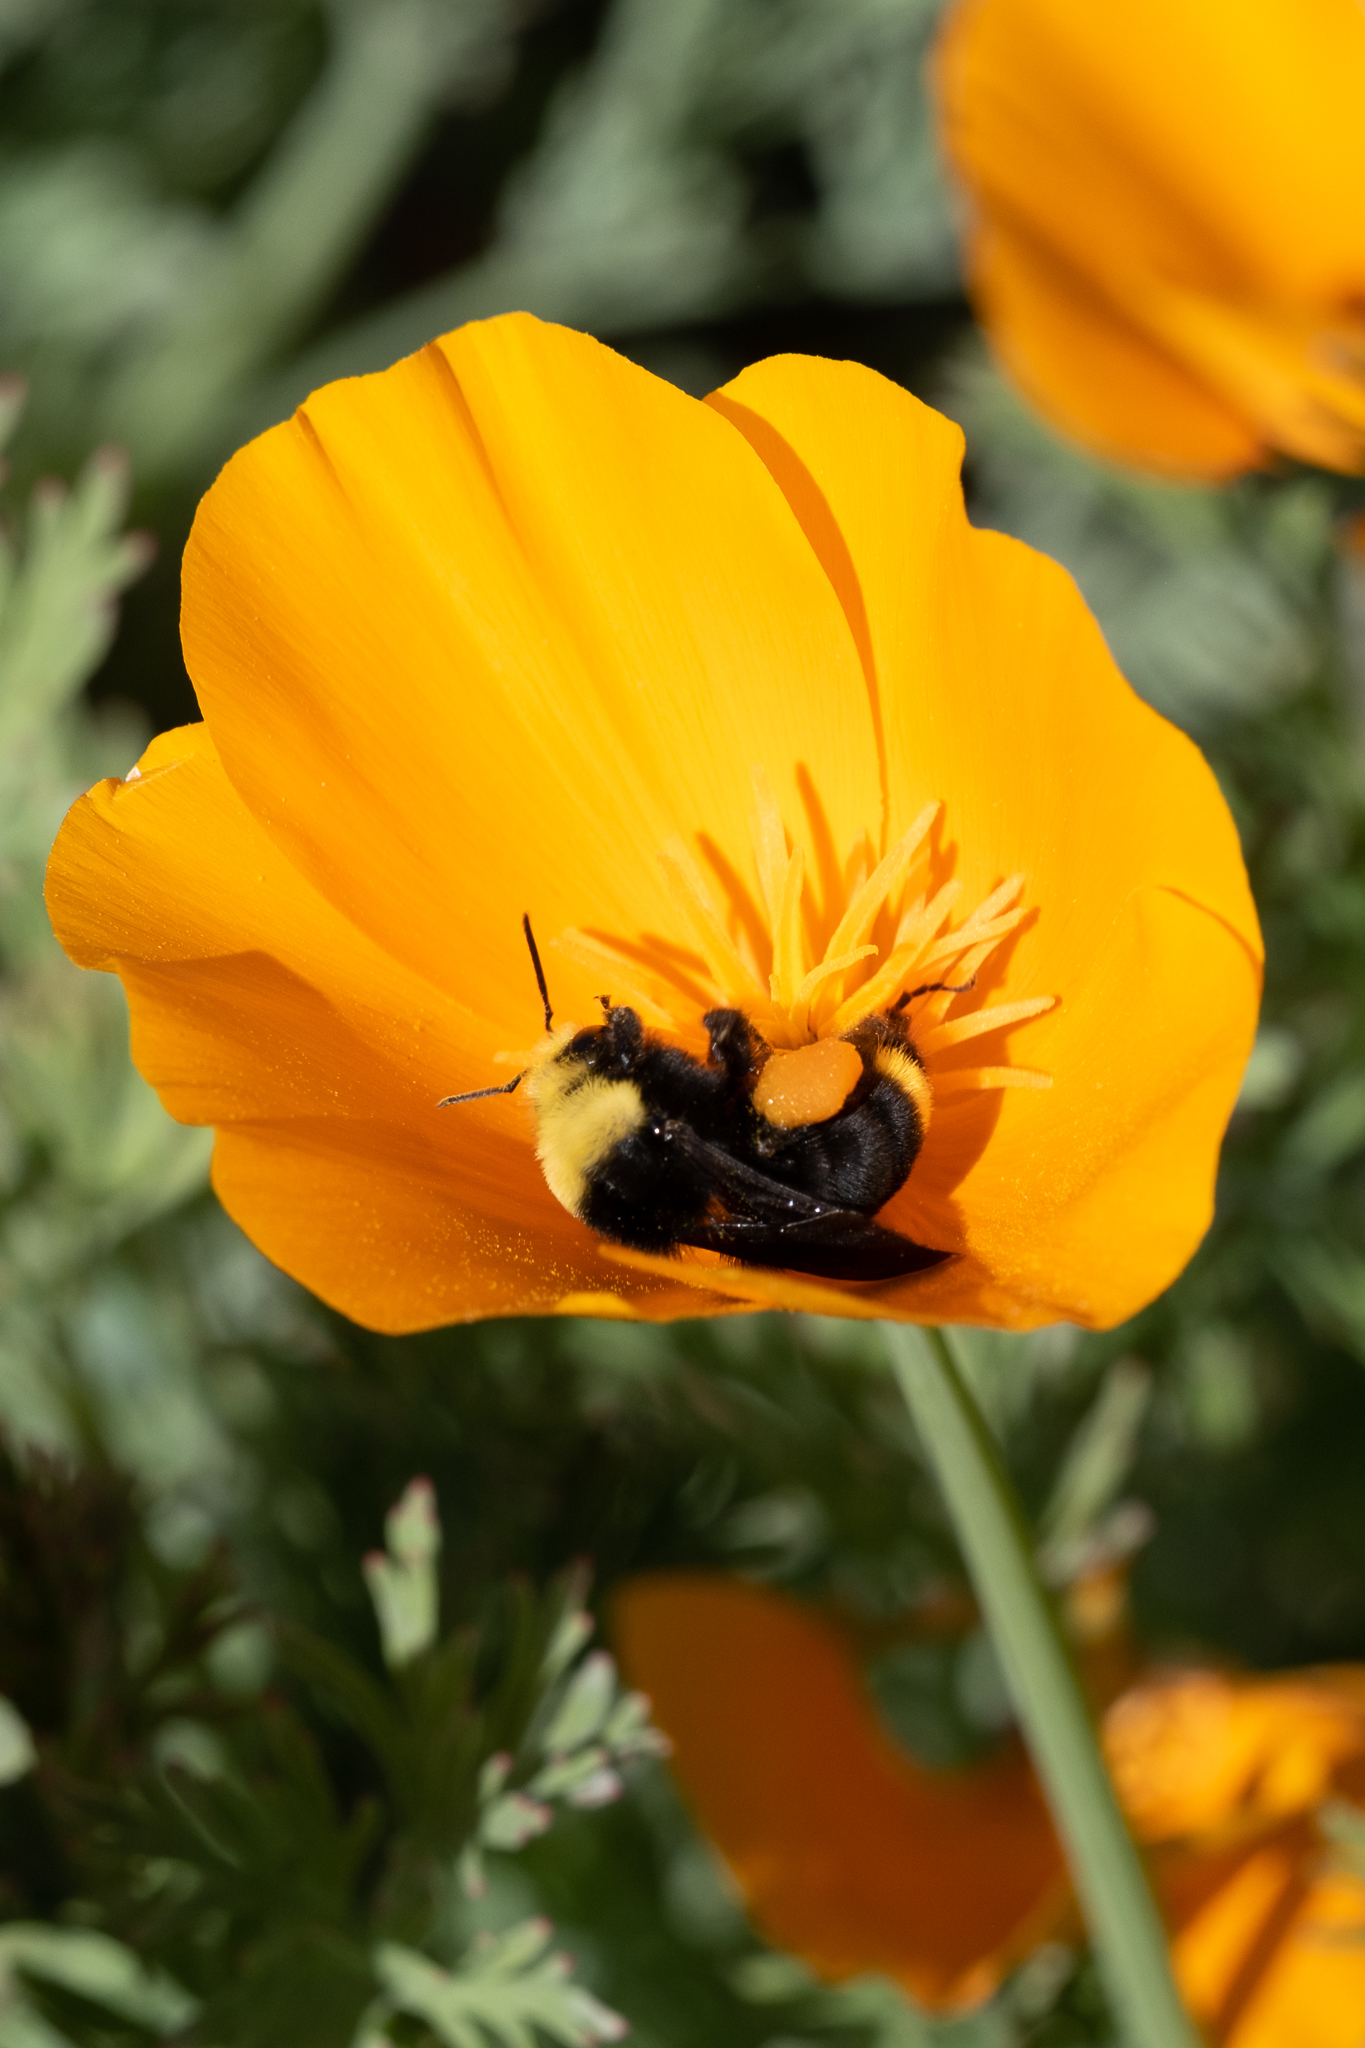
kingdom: Animalia
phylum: Arthropoda
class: Insecta
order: Hymenoptera
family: Apidae
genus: Bombus
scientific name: Bombus vosnesenskii
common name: Vosnesensky bumble bee
